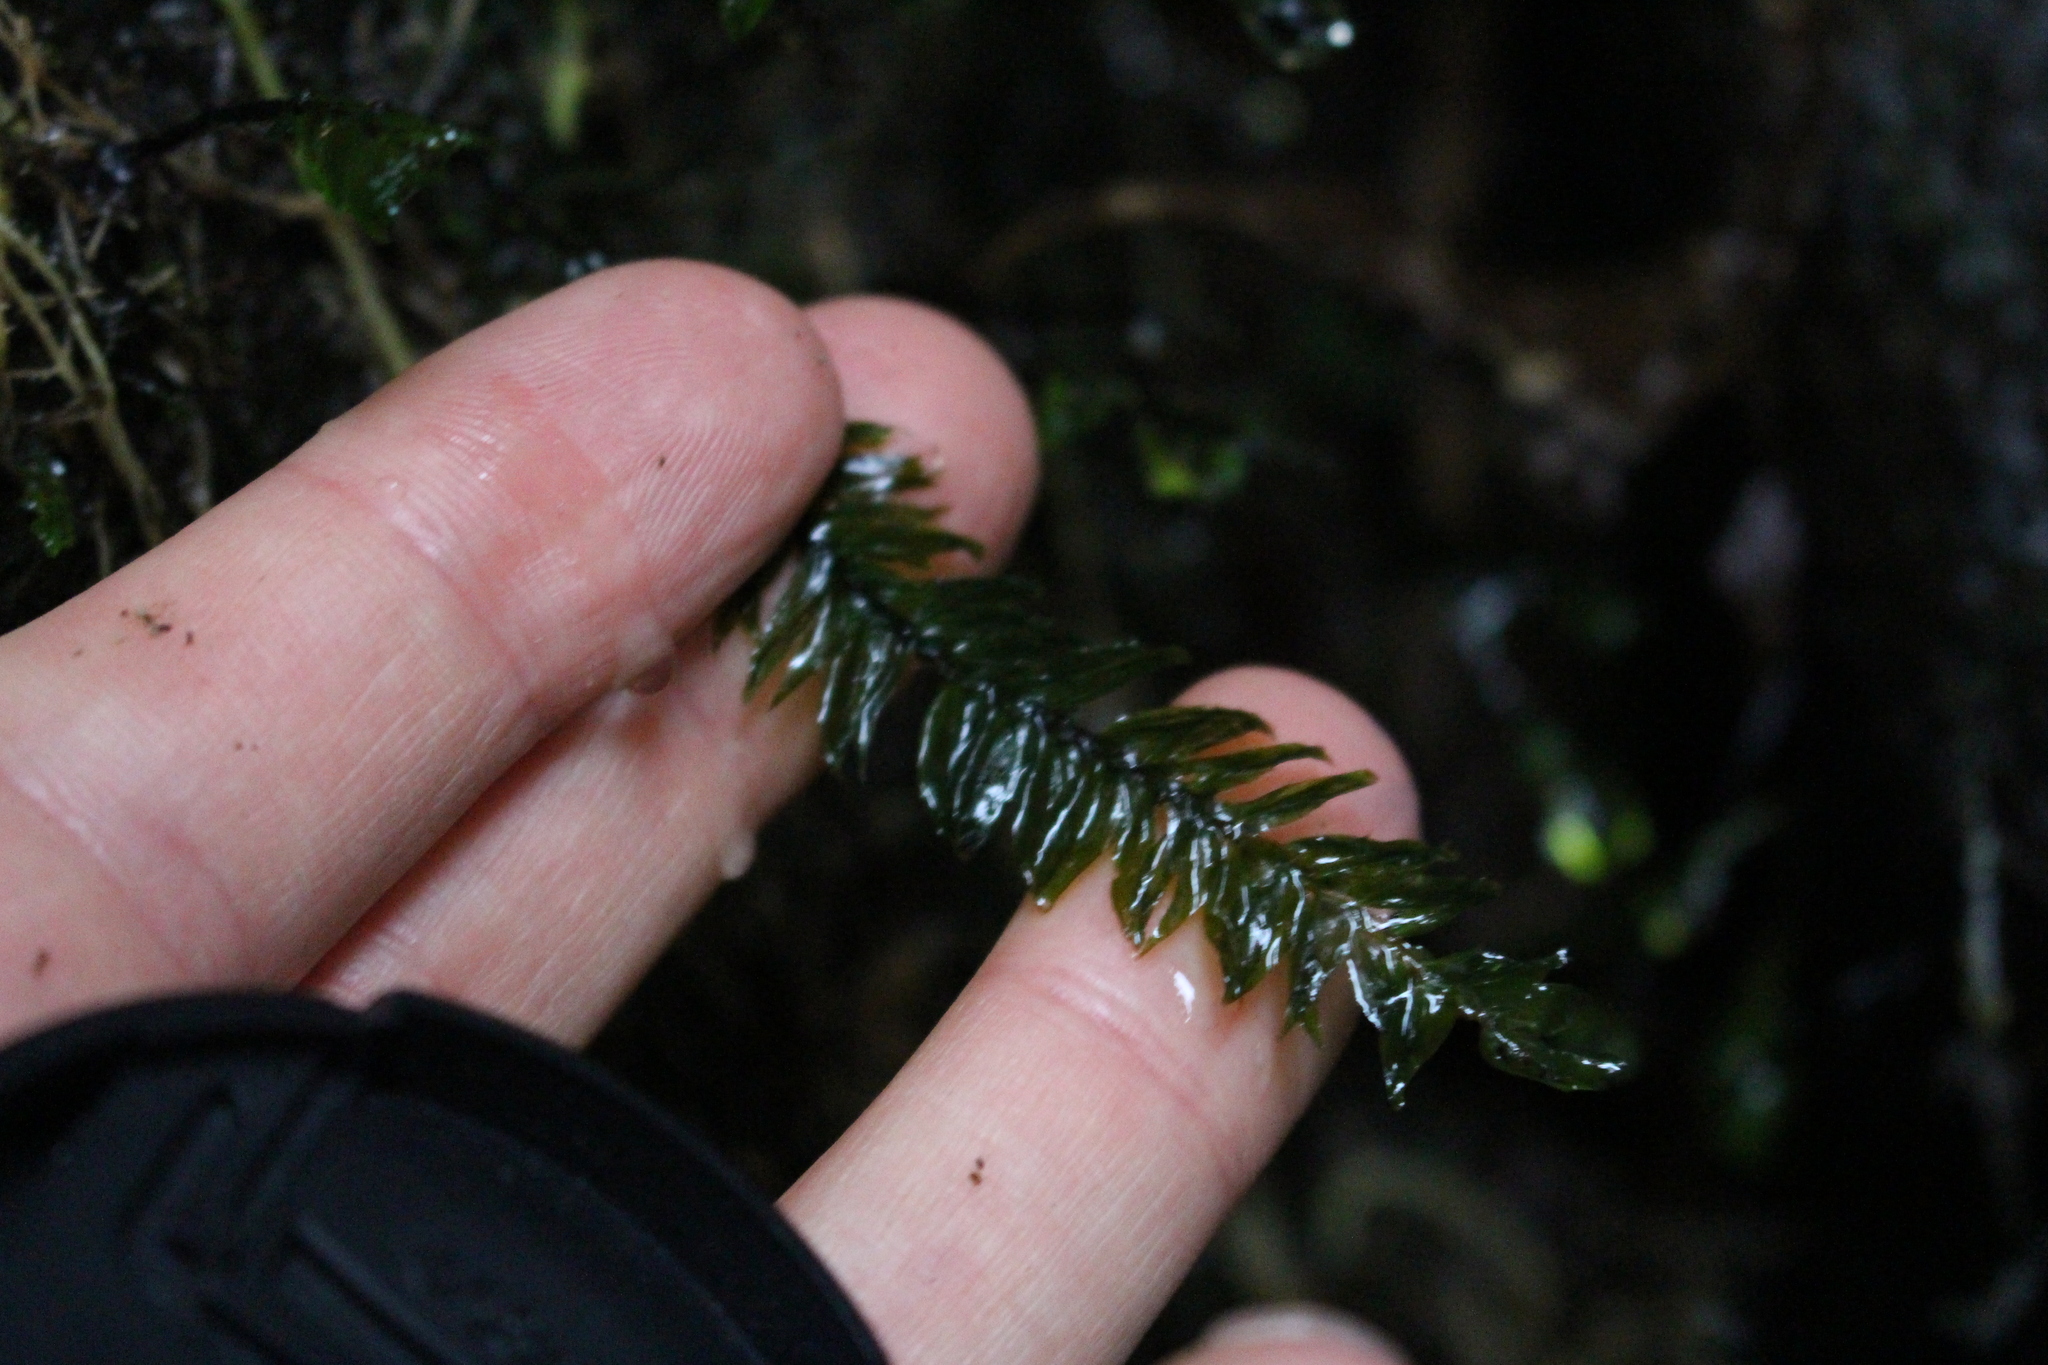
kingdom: Plantae
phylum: Bryophyta
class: Bryopsida
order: Hypopterygiales
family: Hypopterygiaceae
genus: Cyathophorum
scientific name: Cyathophorum bulbosum
